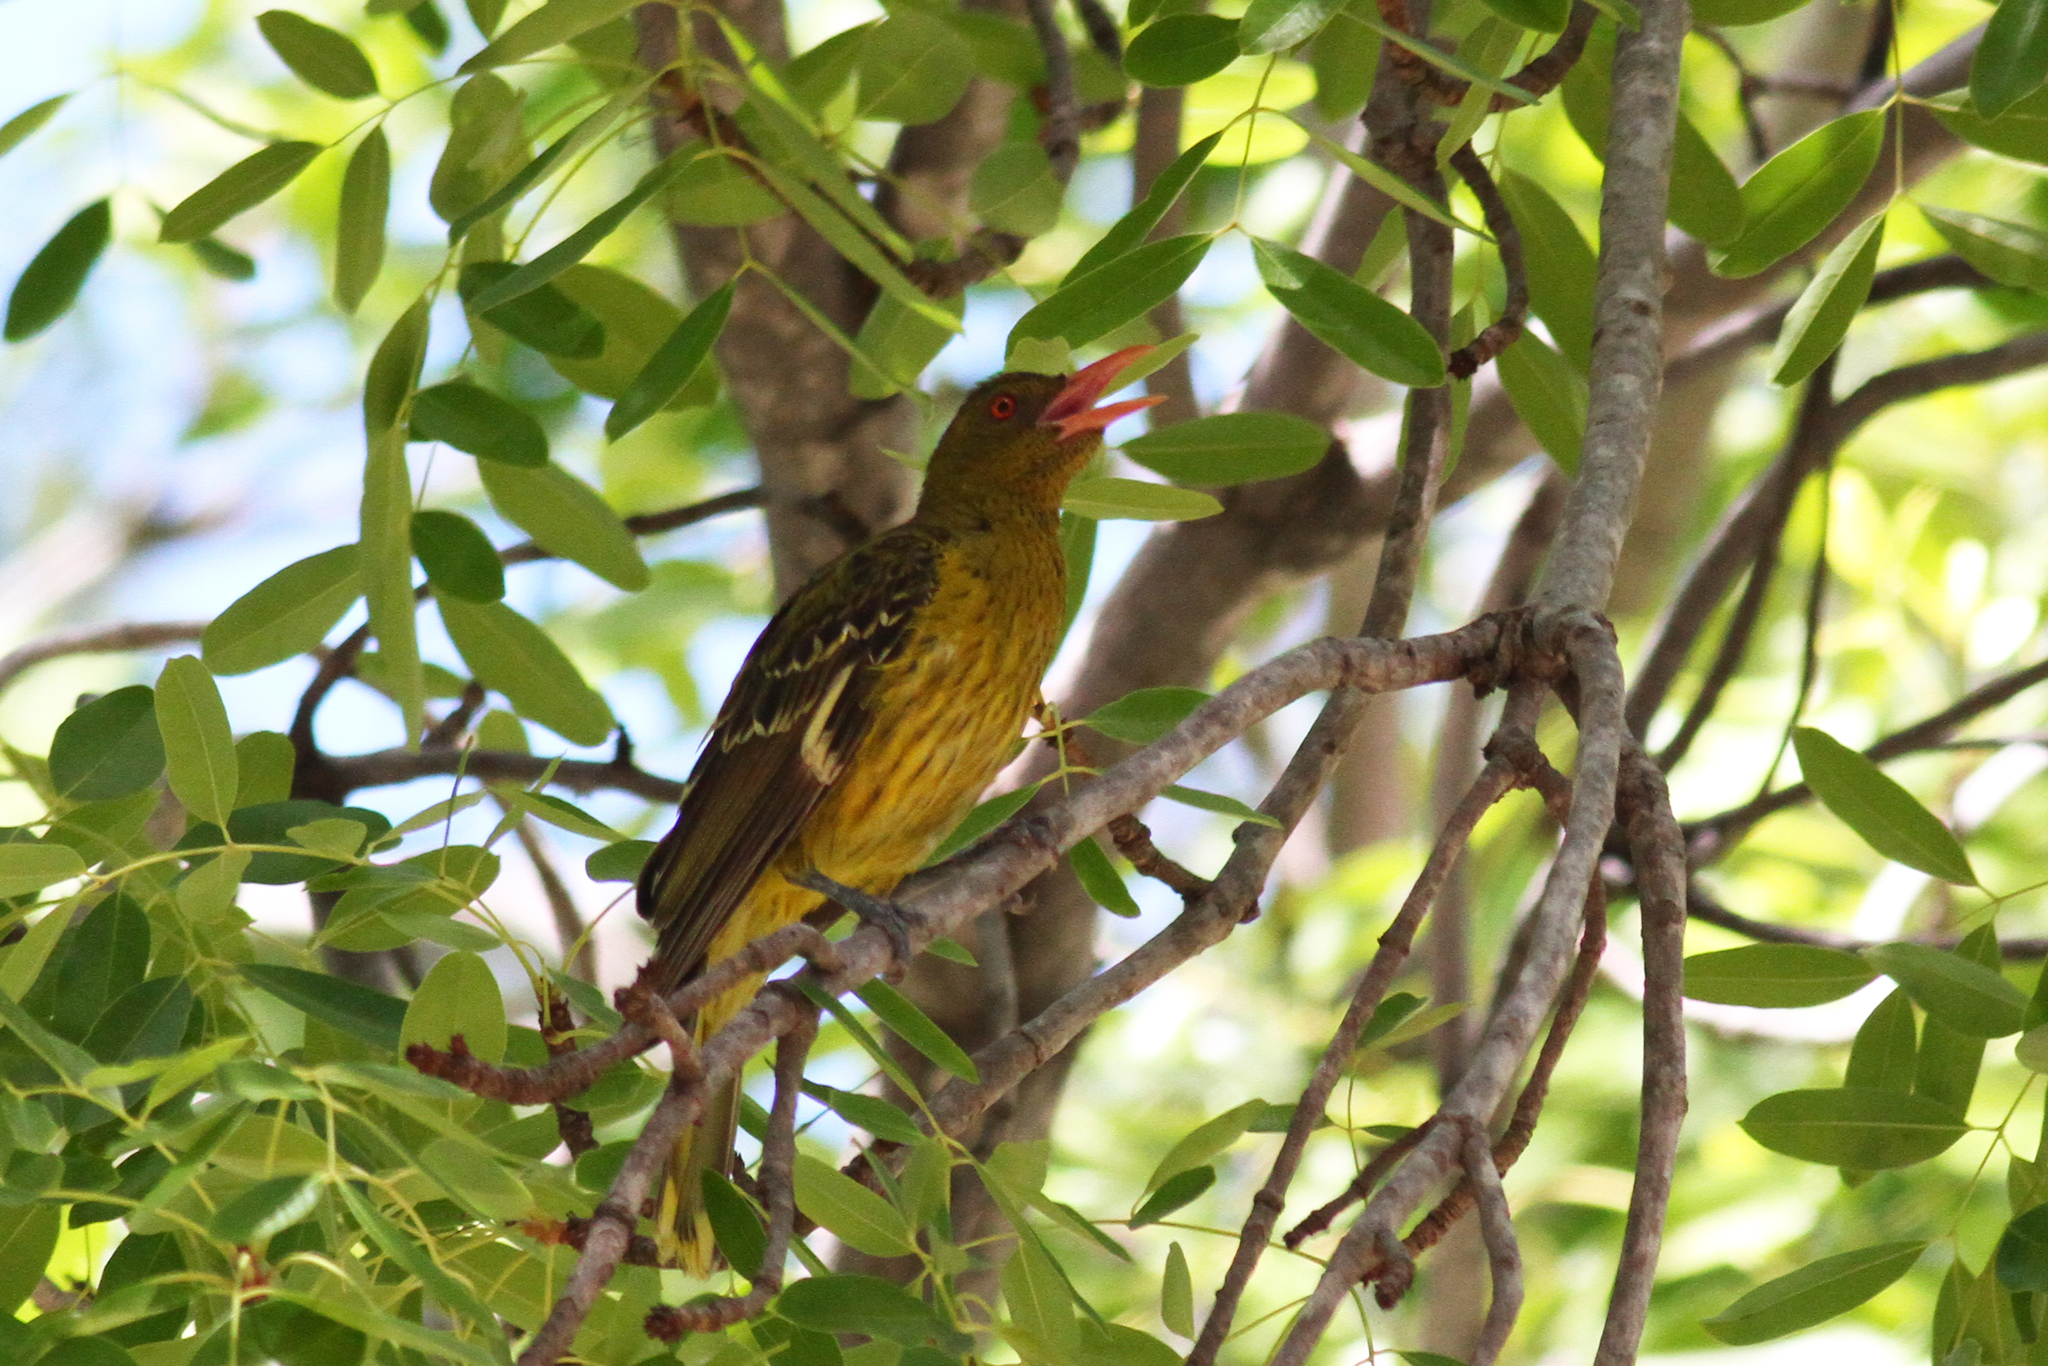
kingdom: Animalia
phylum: Chordata
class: Aves
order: Passeriformes
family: Oriolidae
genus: Oriolus
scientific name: Oriolus flavocinctus
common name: Green oriole
